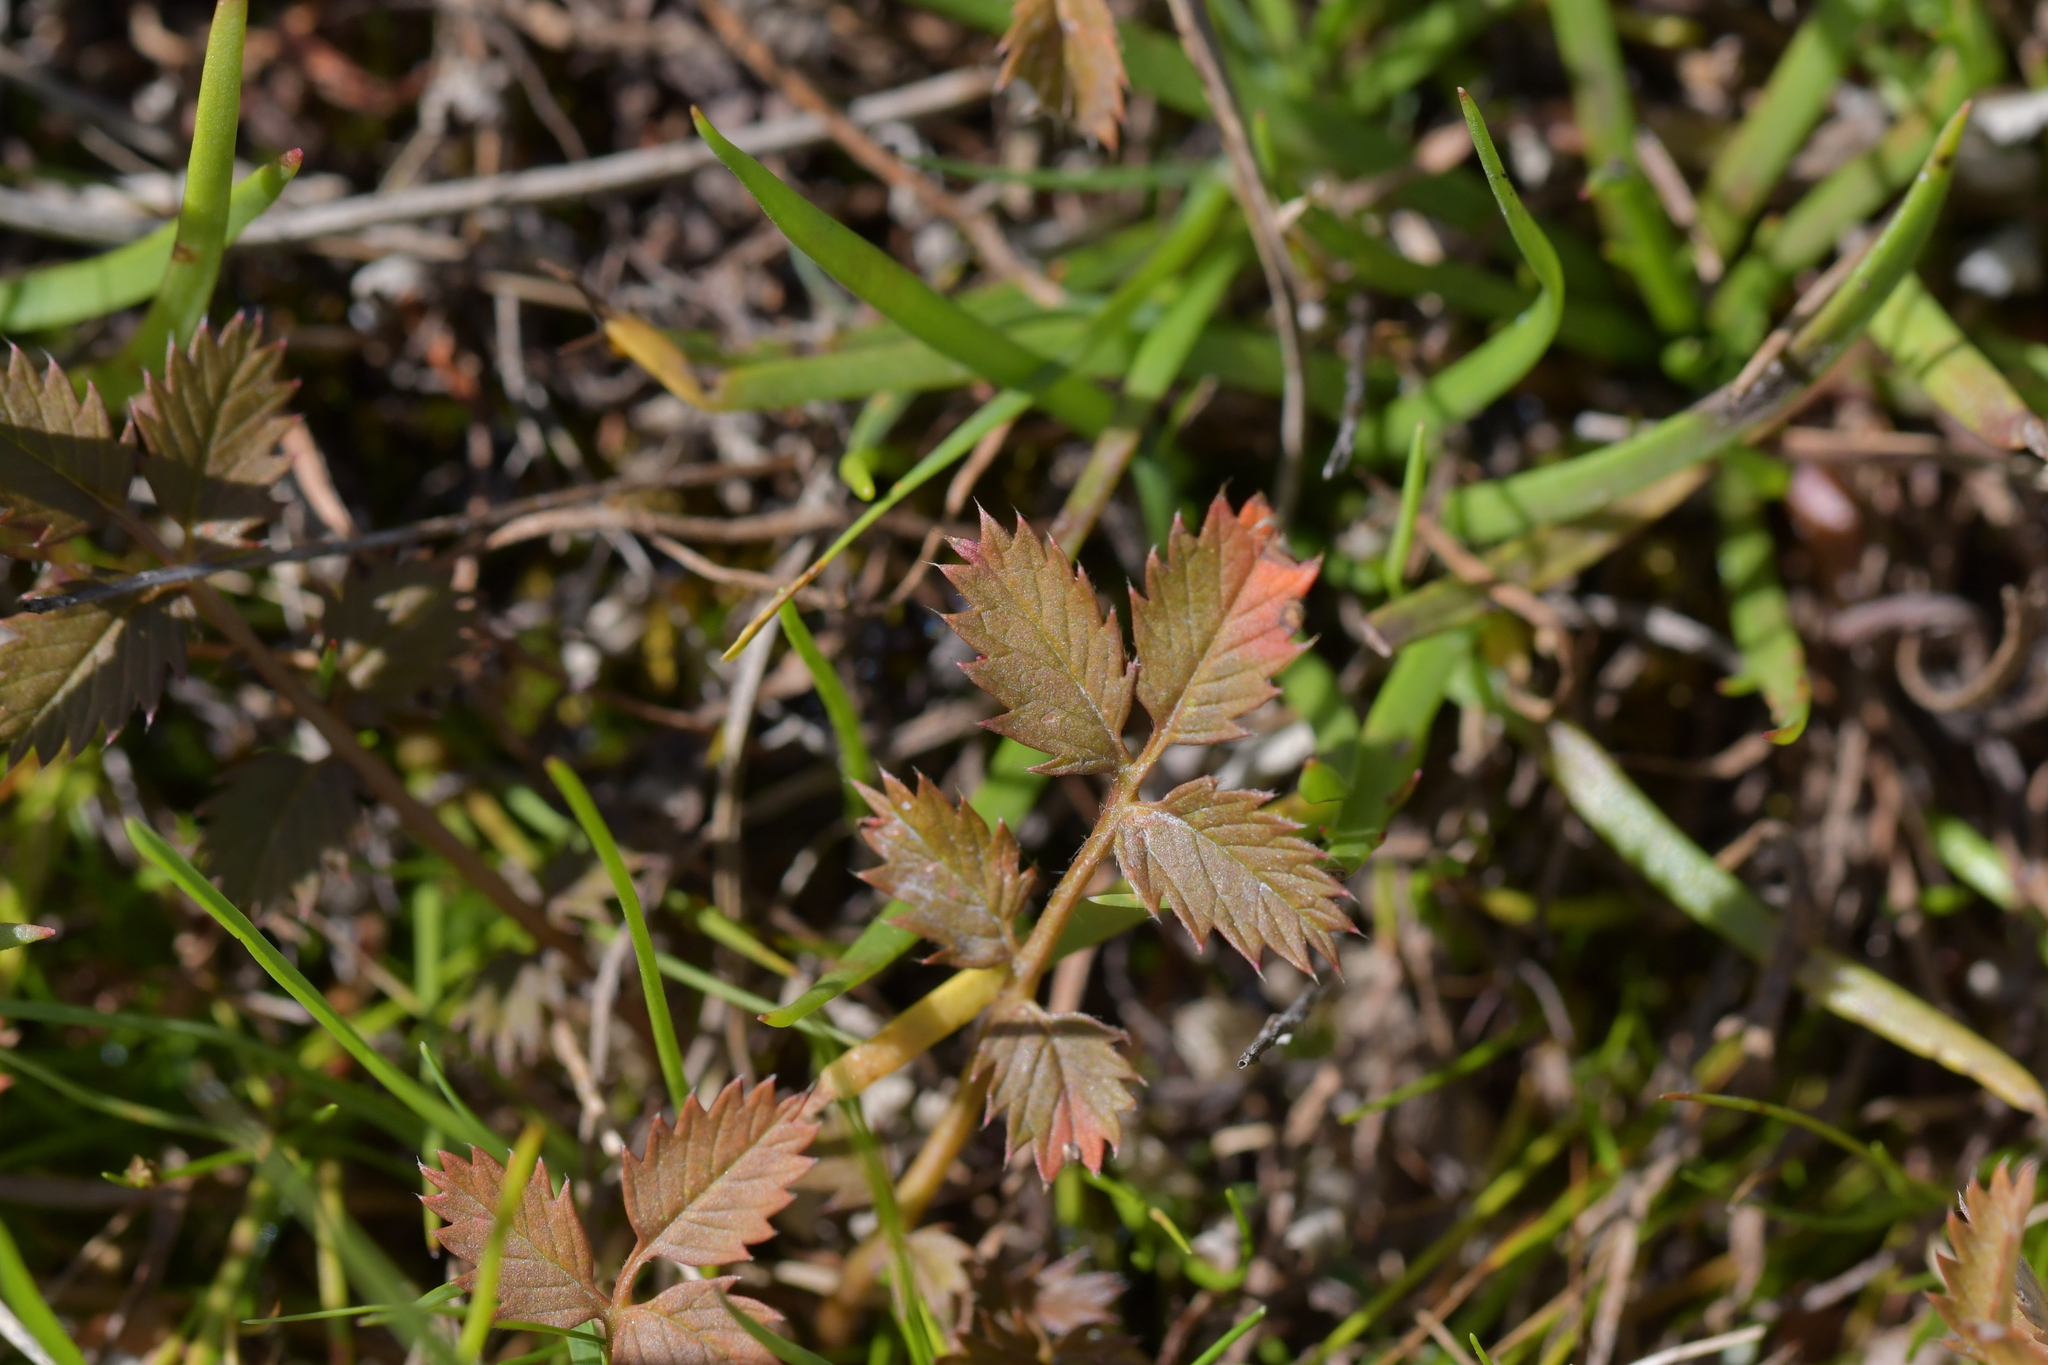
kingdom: Plantae
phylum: Tracheophyta
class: Magnoliopsida
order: Rosales
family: Rosaceae
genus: Argentina
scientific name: Argentina anserinoides
